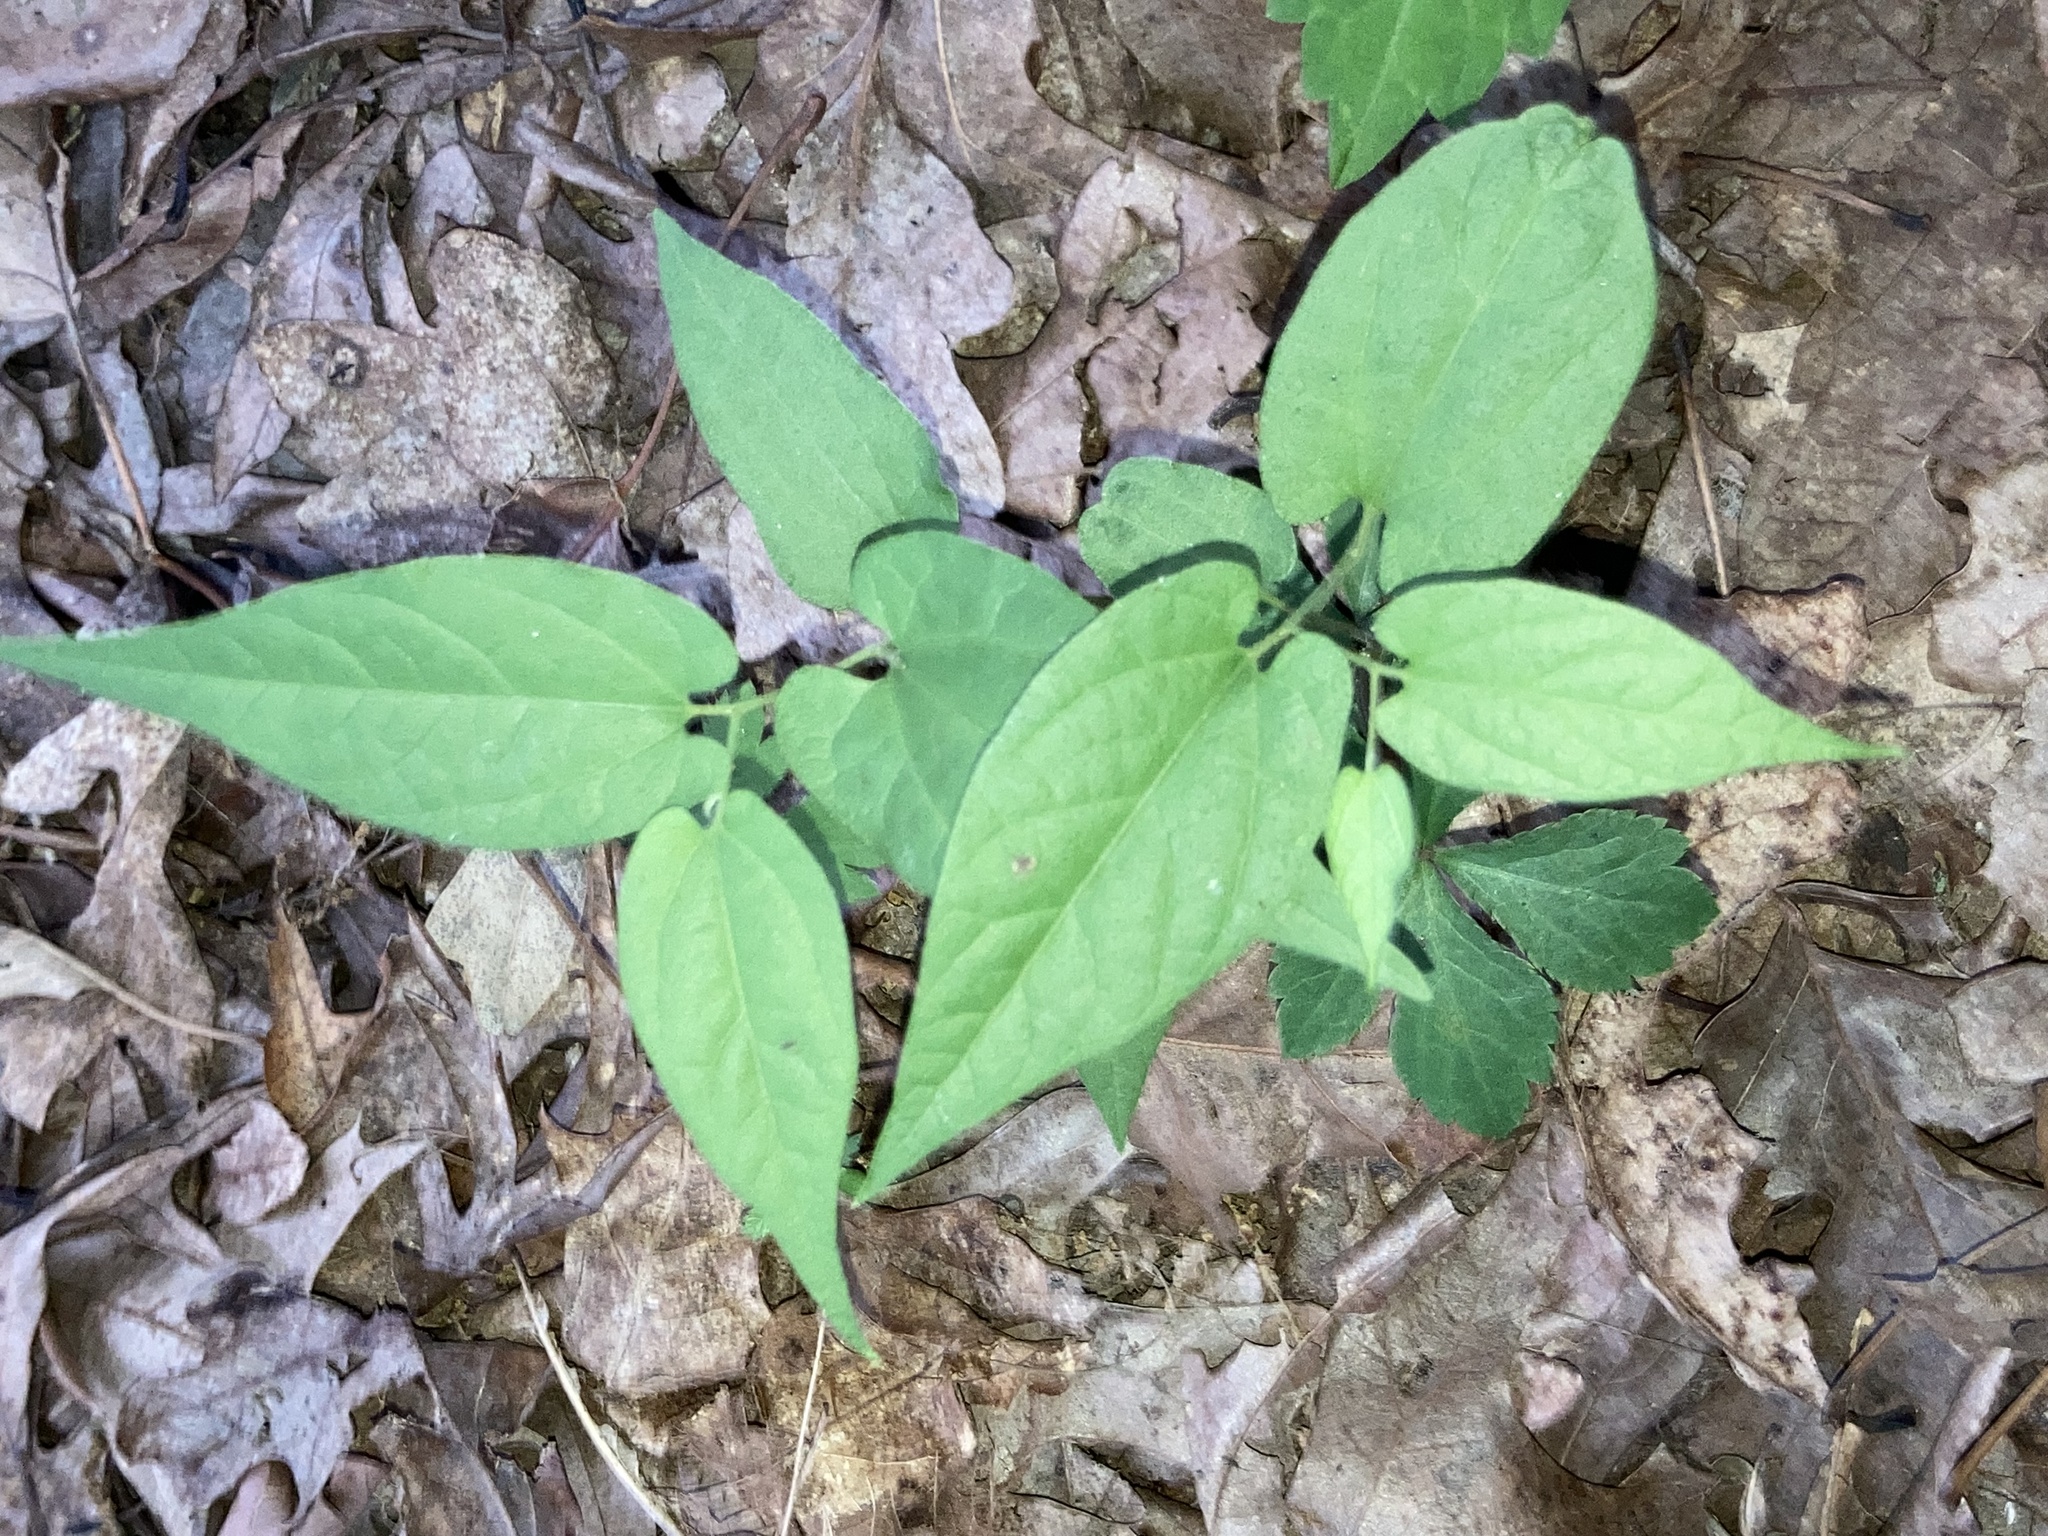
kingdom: Plantae
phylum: Tracheophyta
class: Magnoliopsida
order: Piperales
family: Aristolochiaceae
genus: Endodeca
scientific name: Endodeca serpentaria
